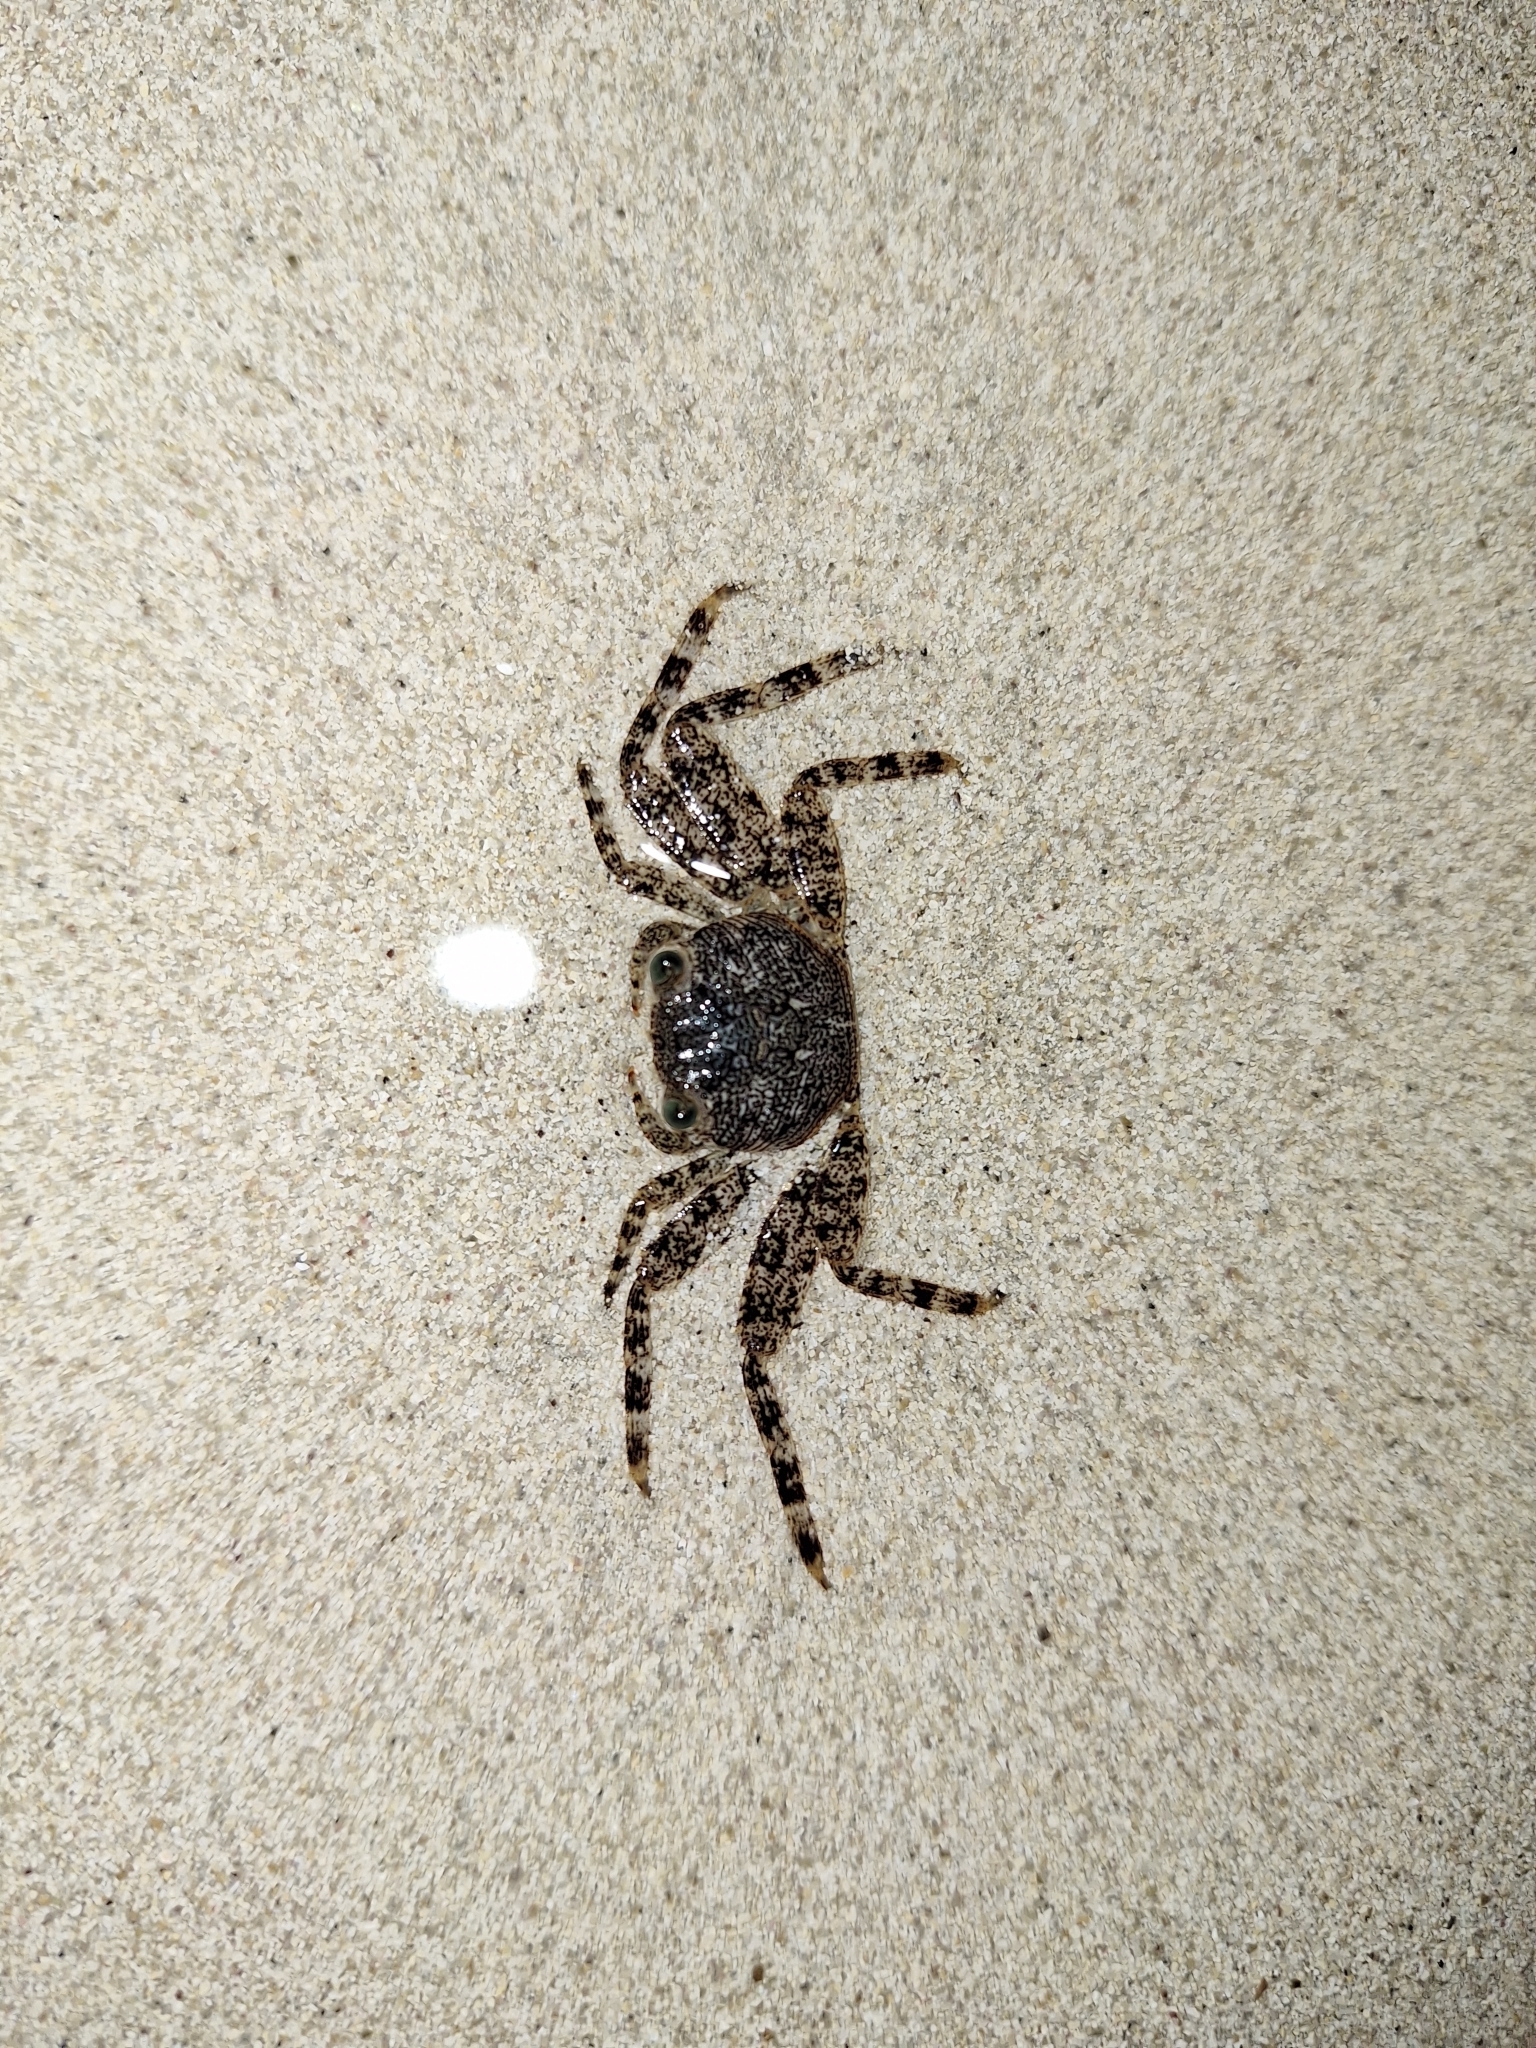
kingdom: Animalia
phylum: Arthropoda
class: Malacostraca
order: Decapoda
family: Grapsidae
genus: Grapsus
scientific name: Grapsus grapsus
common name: Sally lightfoot
